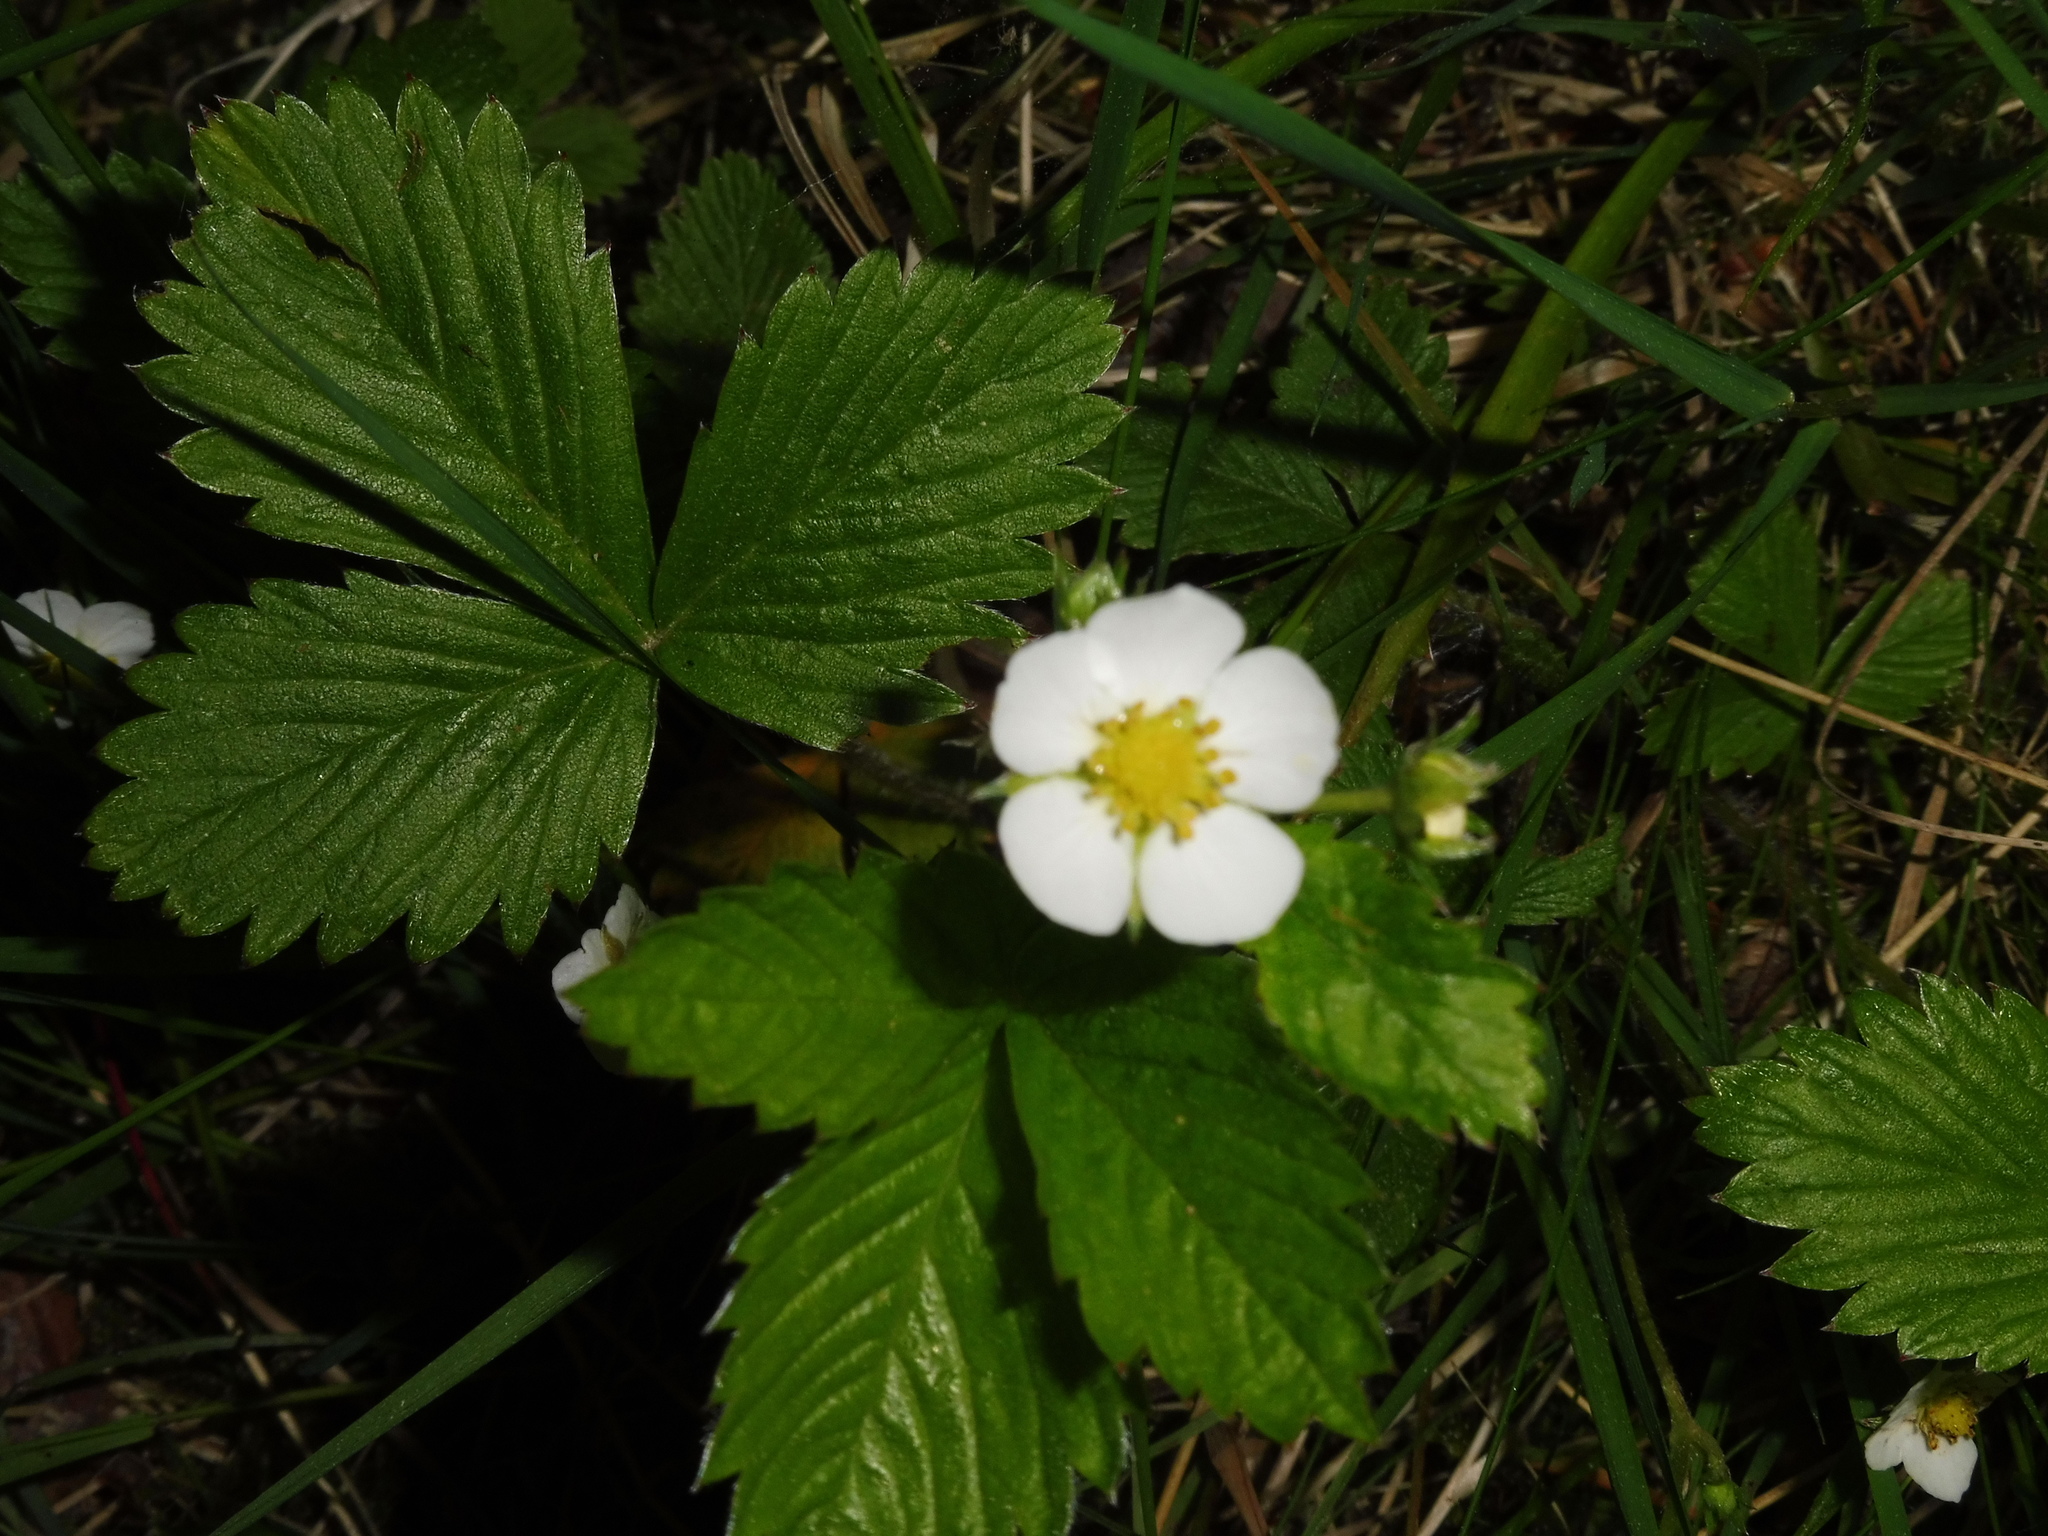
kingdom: Plantae
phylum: Tracheophyta
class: Magnoliopsida
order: Rosales
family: Rosaceae
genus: Fragaria
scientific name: Fragaria vesca
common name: Wild strawberry
